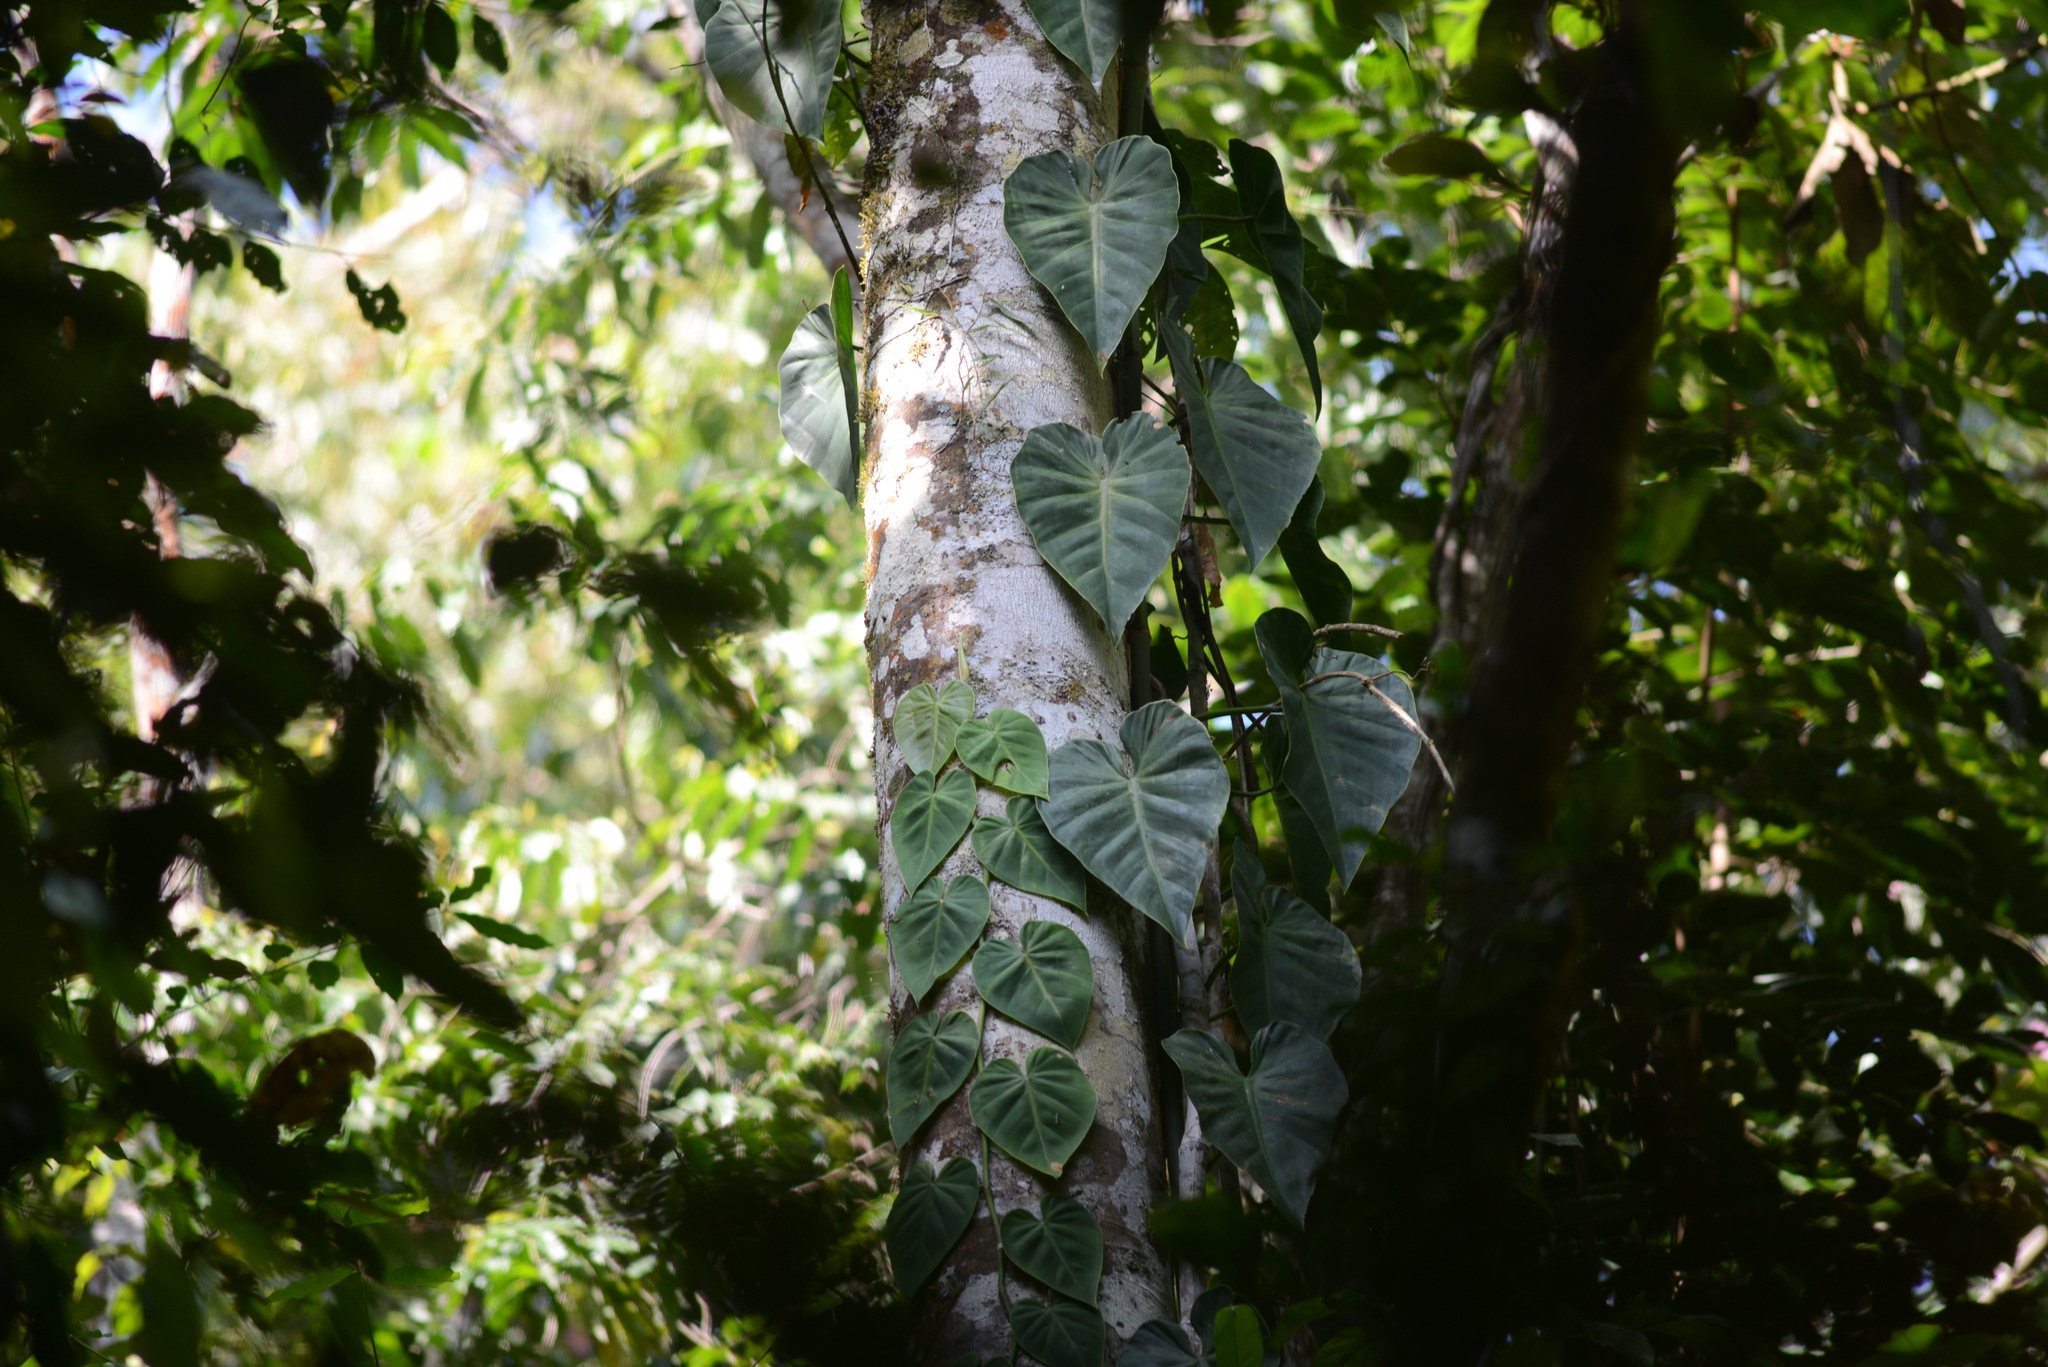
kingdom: Plantae
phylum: Tracheophyta
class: Liliopsida
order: Alismatales
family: Araceae
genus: Philodendron
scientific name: Philodendron hederaceum
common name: Vilevine
